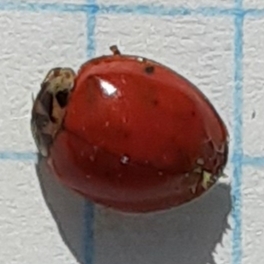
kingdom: Fungi
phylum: Ascomycota
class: Laboulbeniomycetes
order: Laboulbeniales
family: Laboulbeniaceae
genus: Hesperomyces
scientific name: Hesperomyces harmoniae
